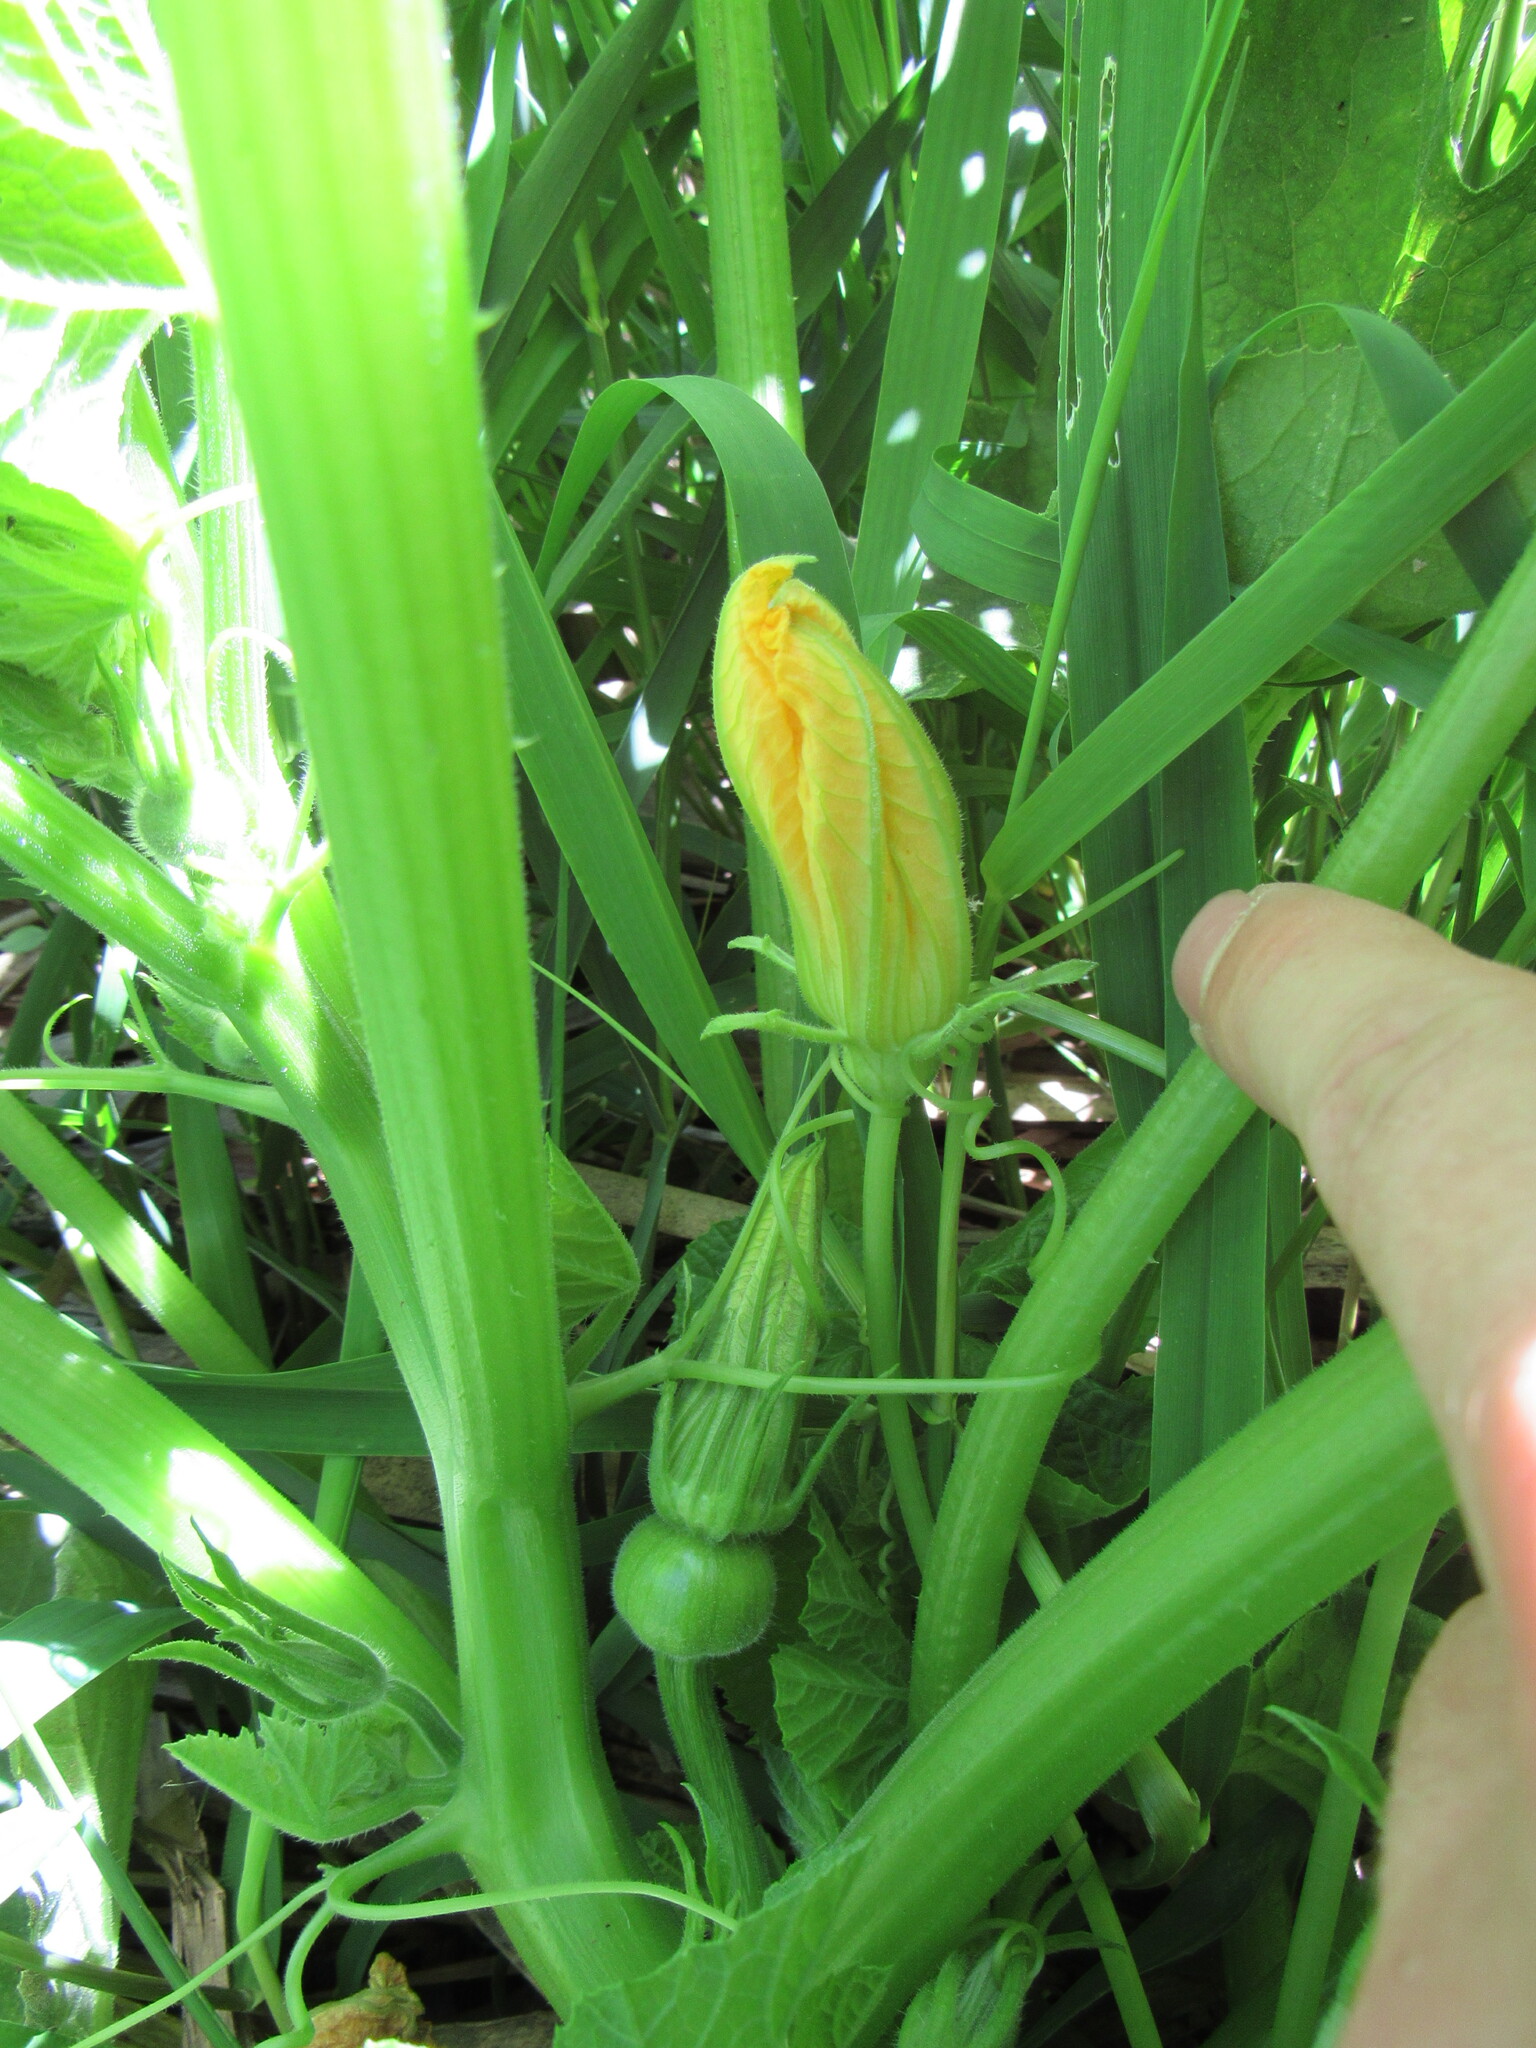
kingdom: Plantae
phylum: Tracheophyta
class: Magnoliopsida
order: Cucurbitales
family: Cucurbitaceae
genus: Cucurbita
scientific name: Cucurbita pepo
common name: Marrow
